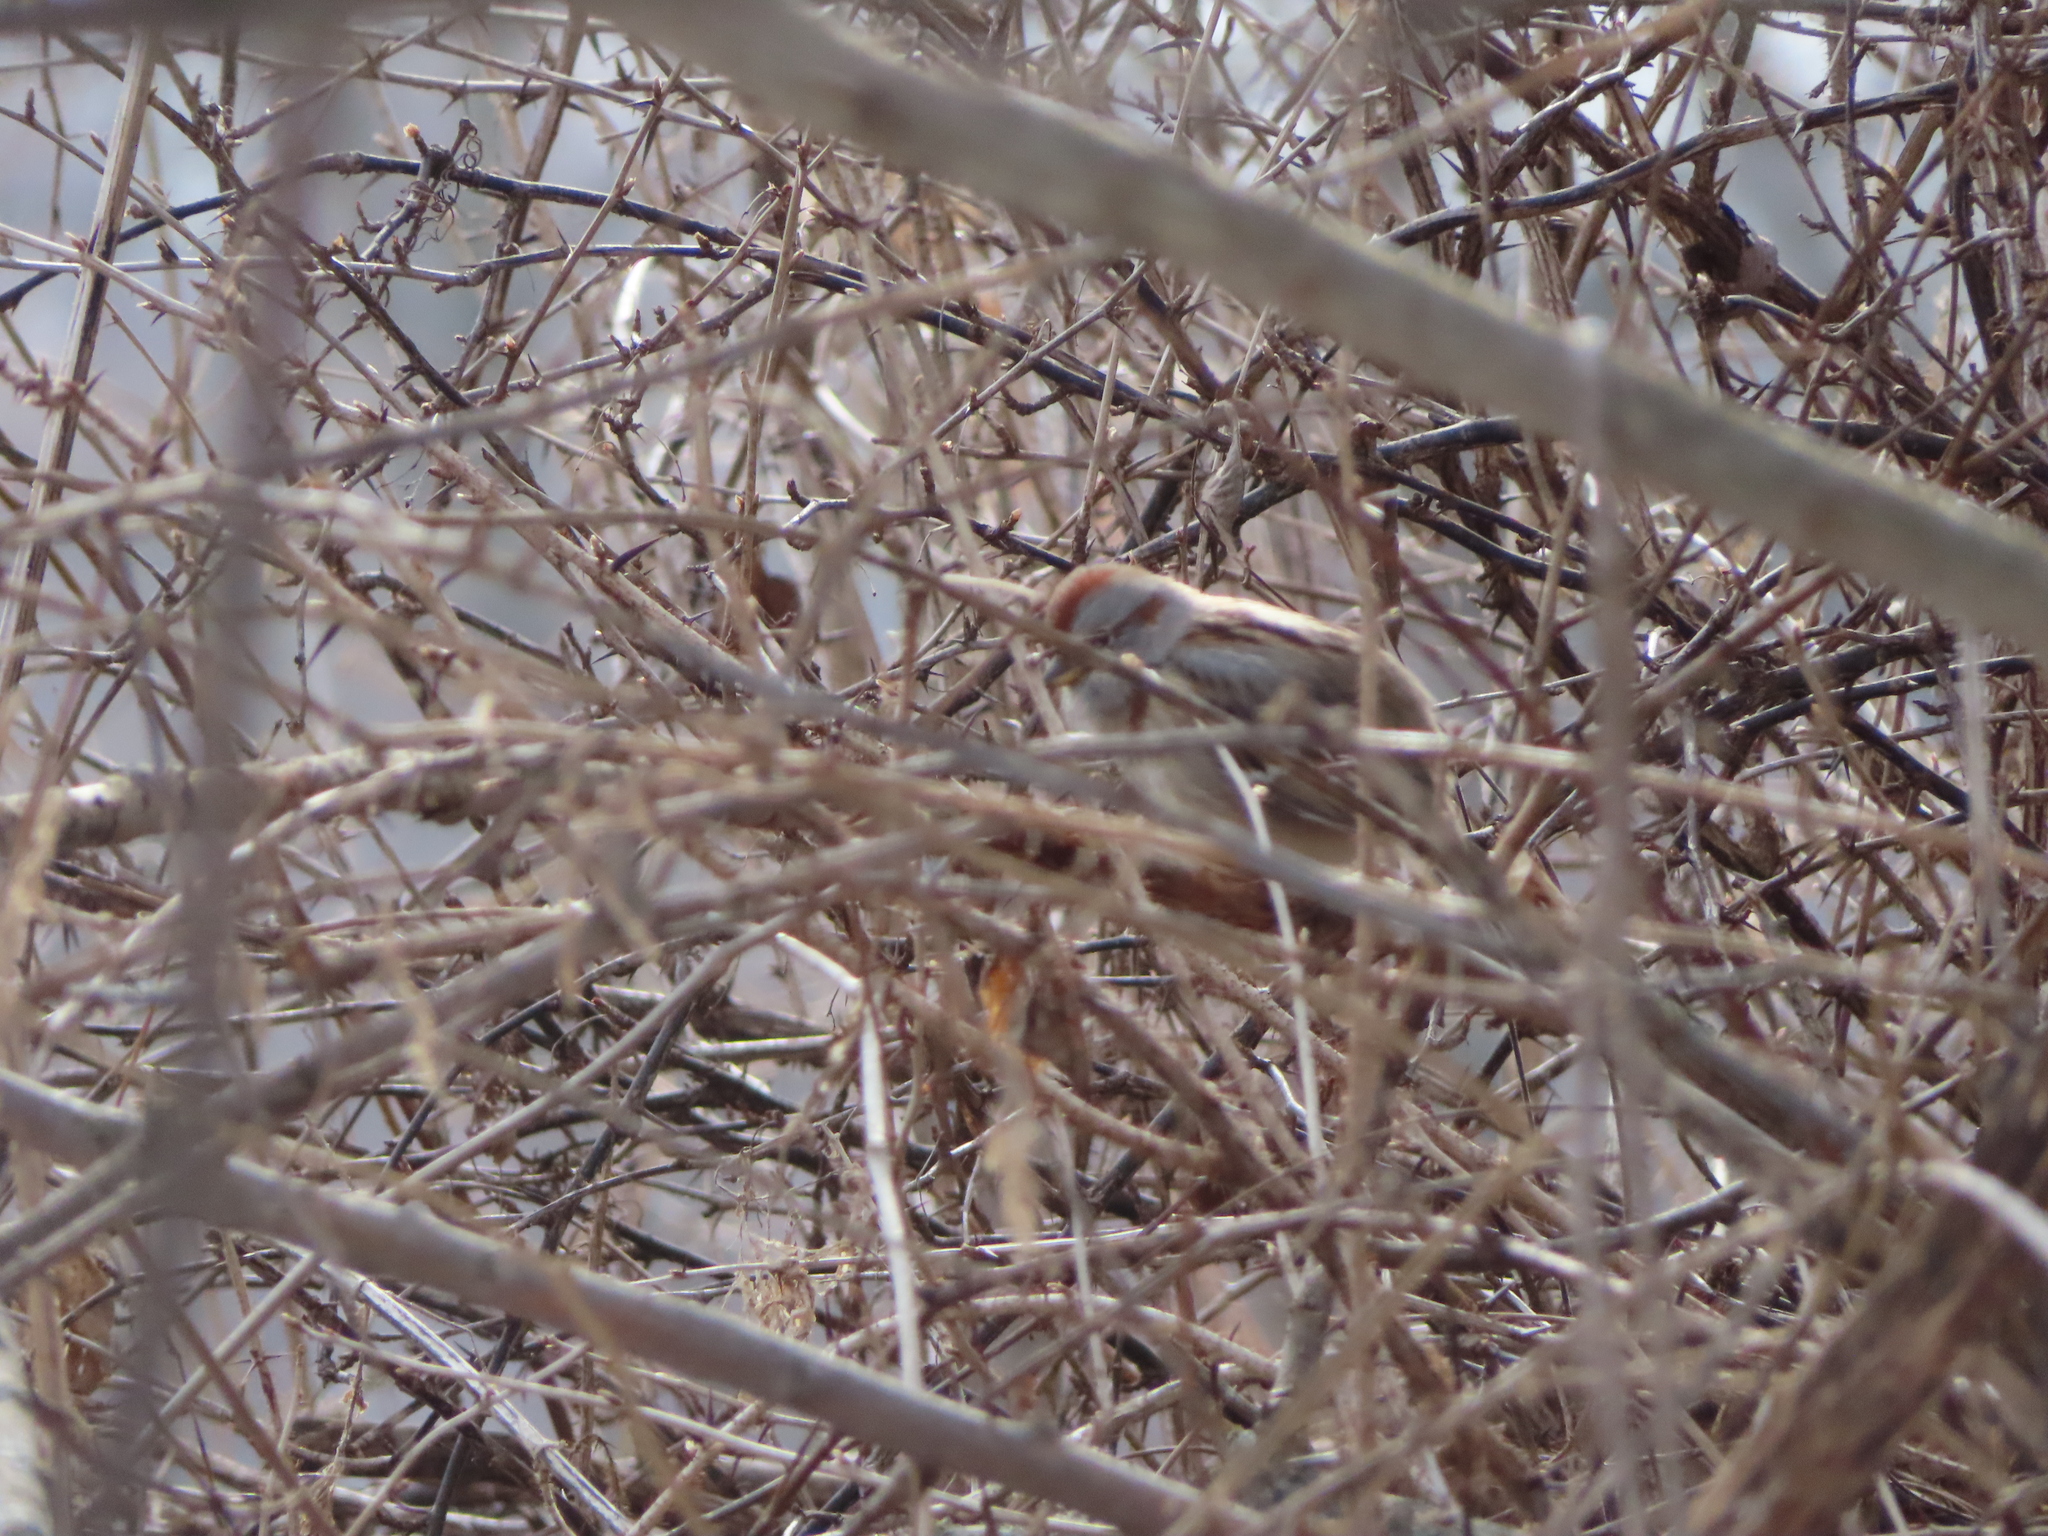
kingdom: Animalia
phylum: Chordata
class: Aves
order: Passeriformes
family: Passerellidae
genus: Spizelloides
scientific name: Spizelloides arborea
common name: American tree sparrow
